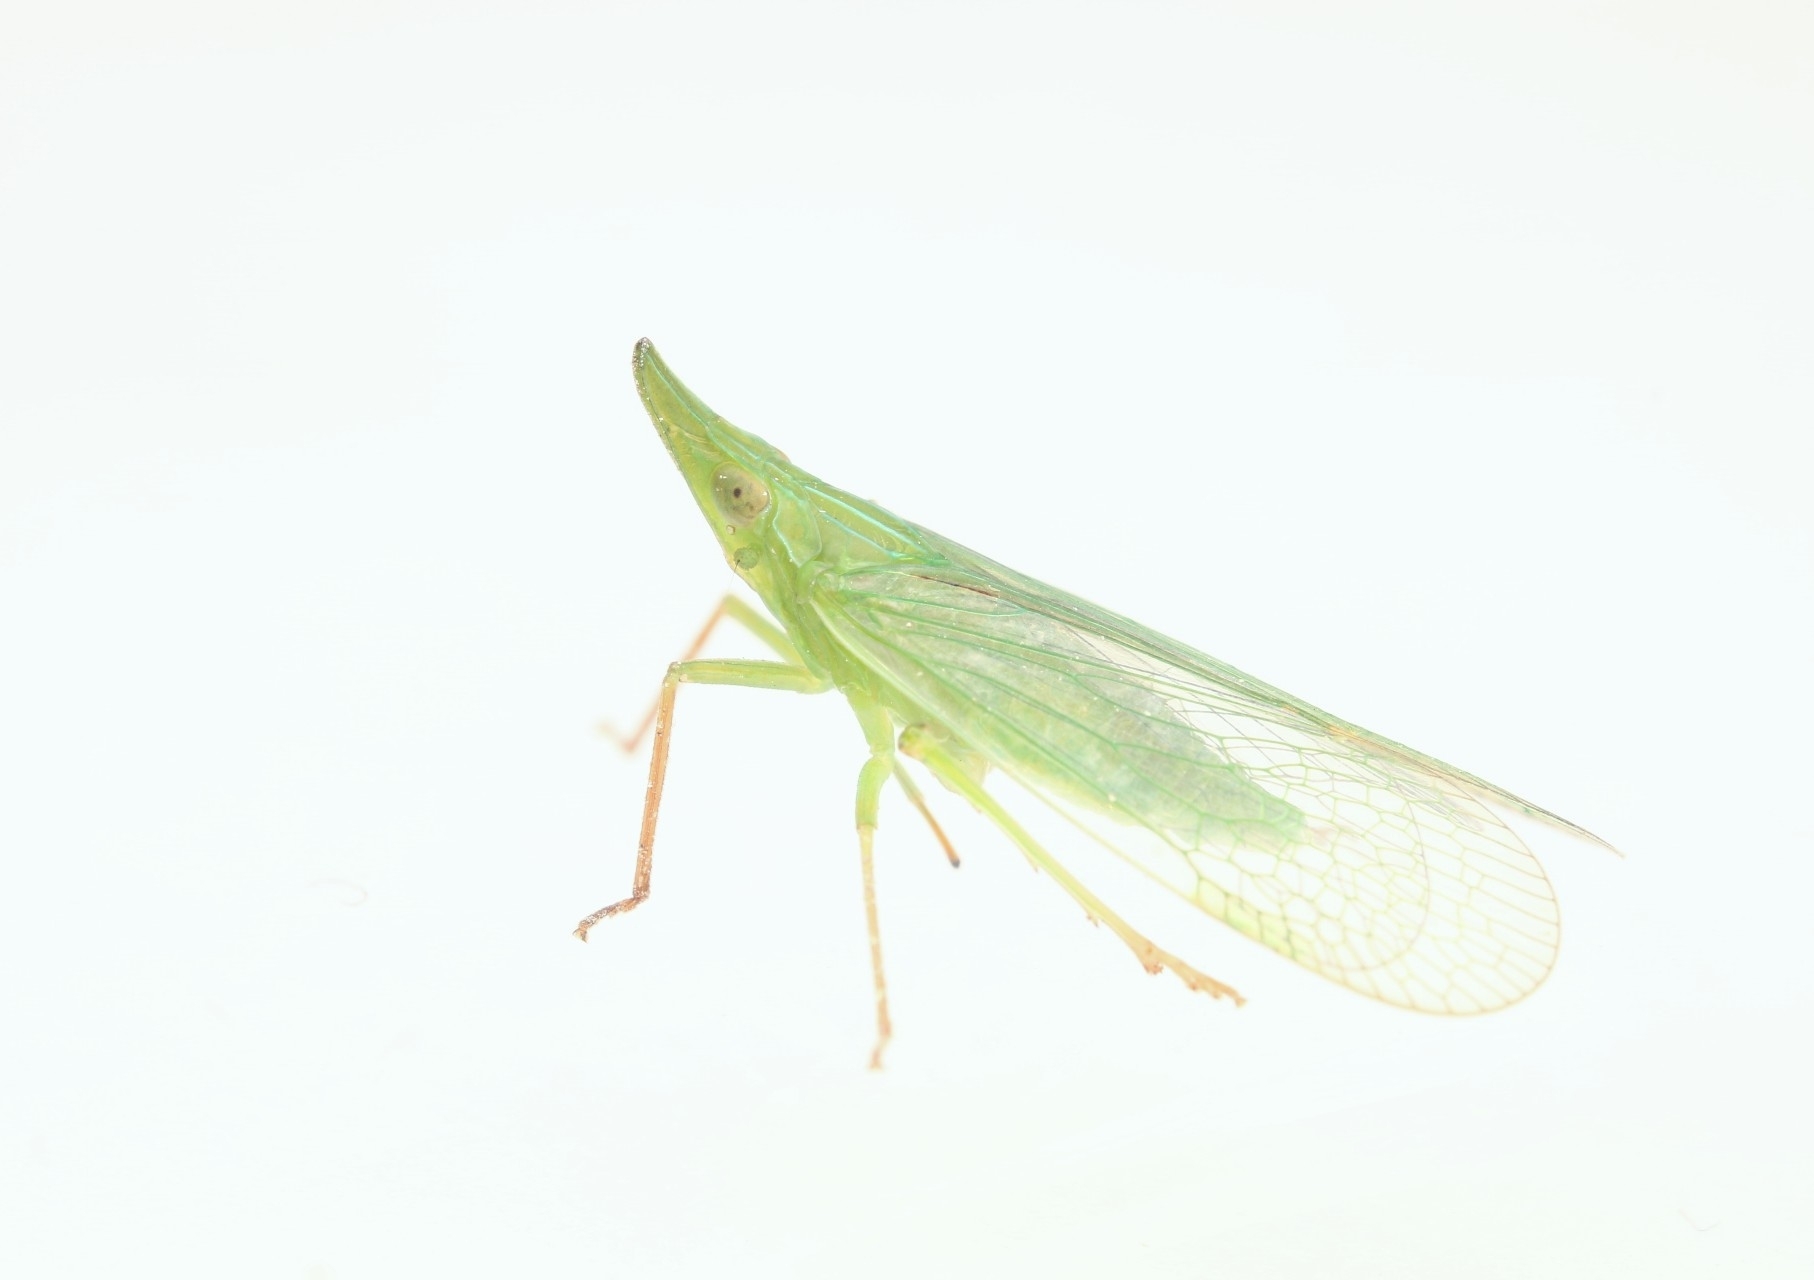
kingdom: Animalia
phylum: Arthropoda
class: Insecta
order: Hemiptera
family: Dictyopharidae
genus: Rhynchomitra
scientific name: Rhynchomitra microrhina
